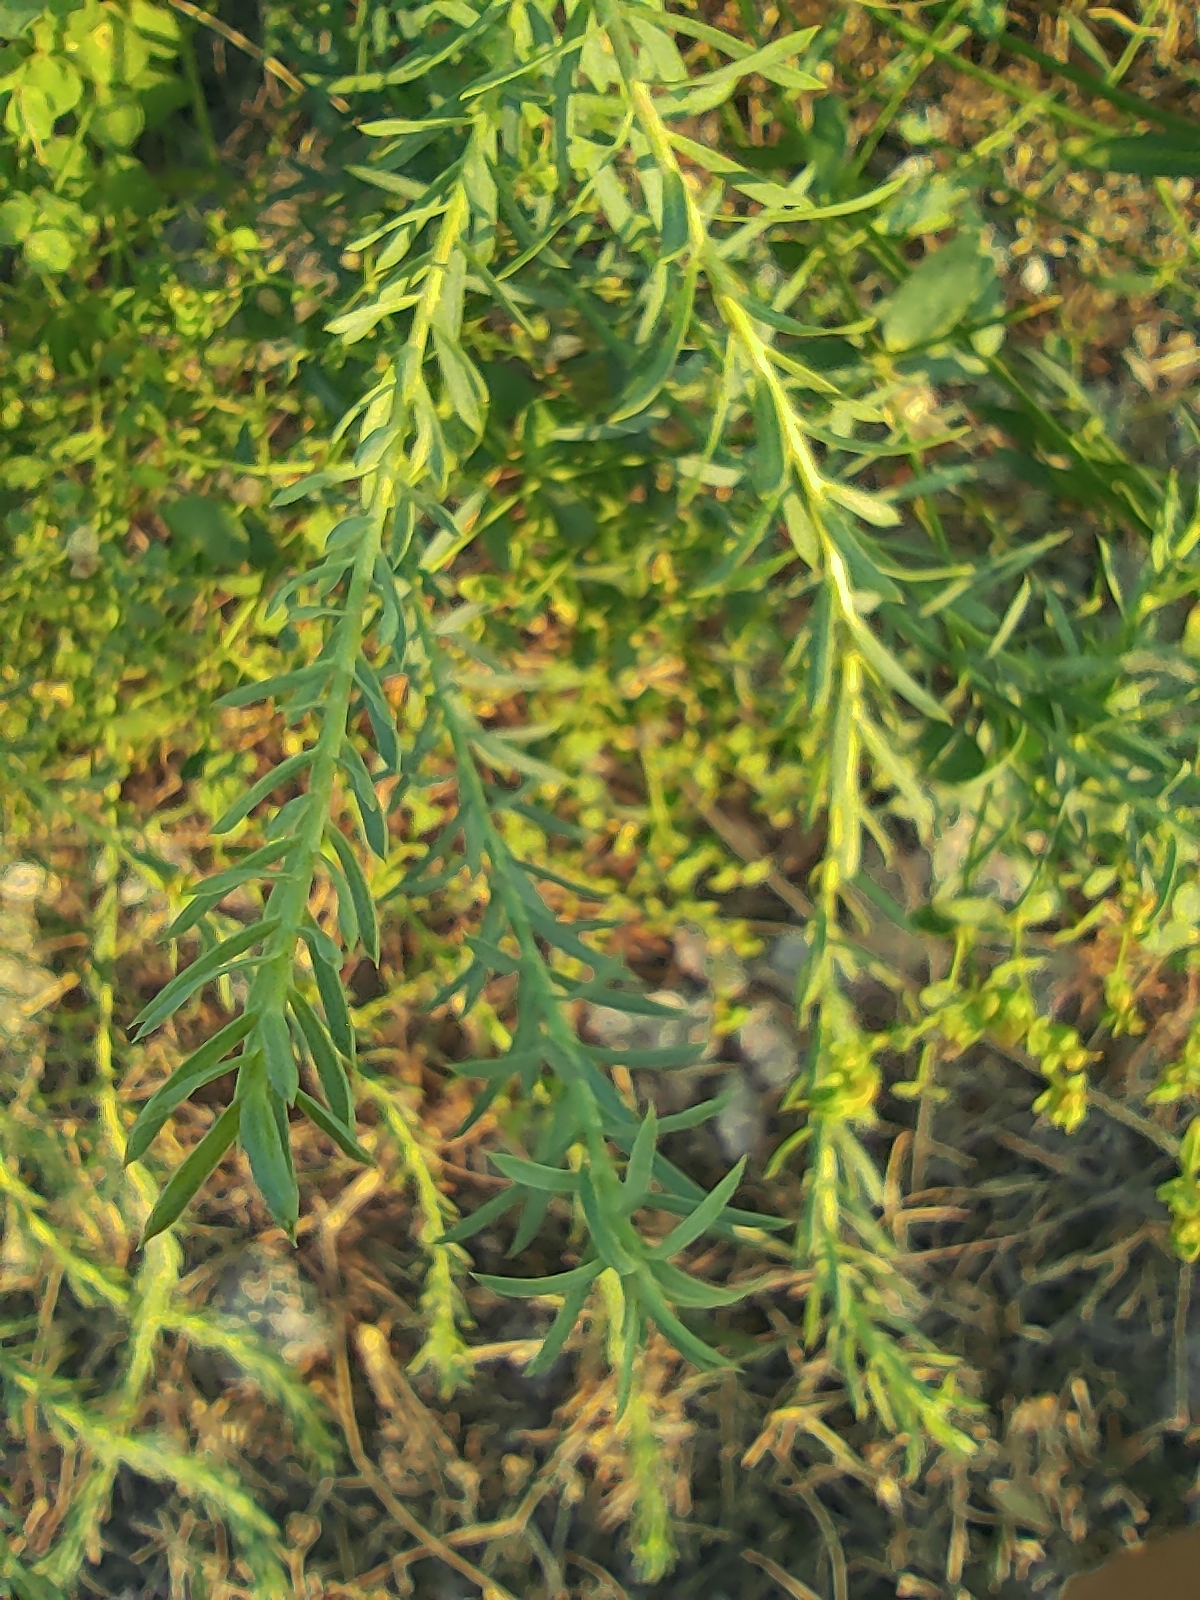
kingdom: Plantae
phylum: Tracheophyta
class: Magnoliopsida
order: Malpighiales
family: Euphorbiaceae
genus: Euphorbia
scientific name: Euphorbia seguieriana
